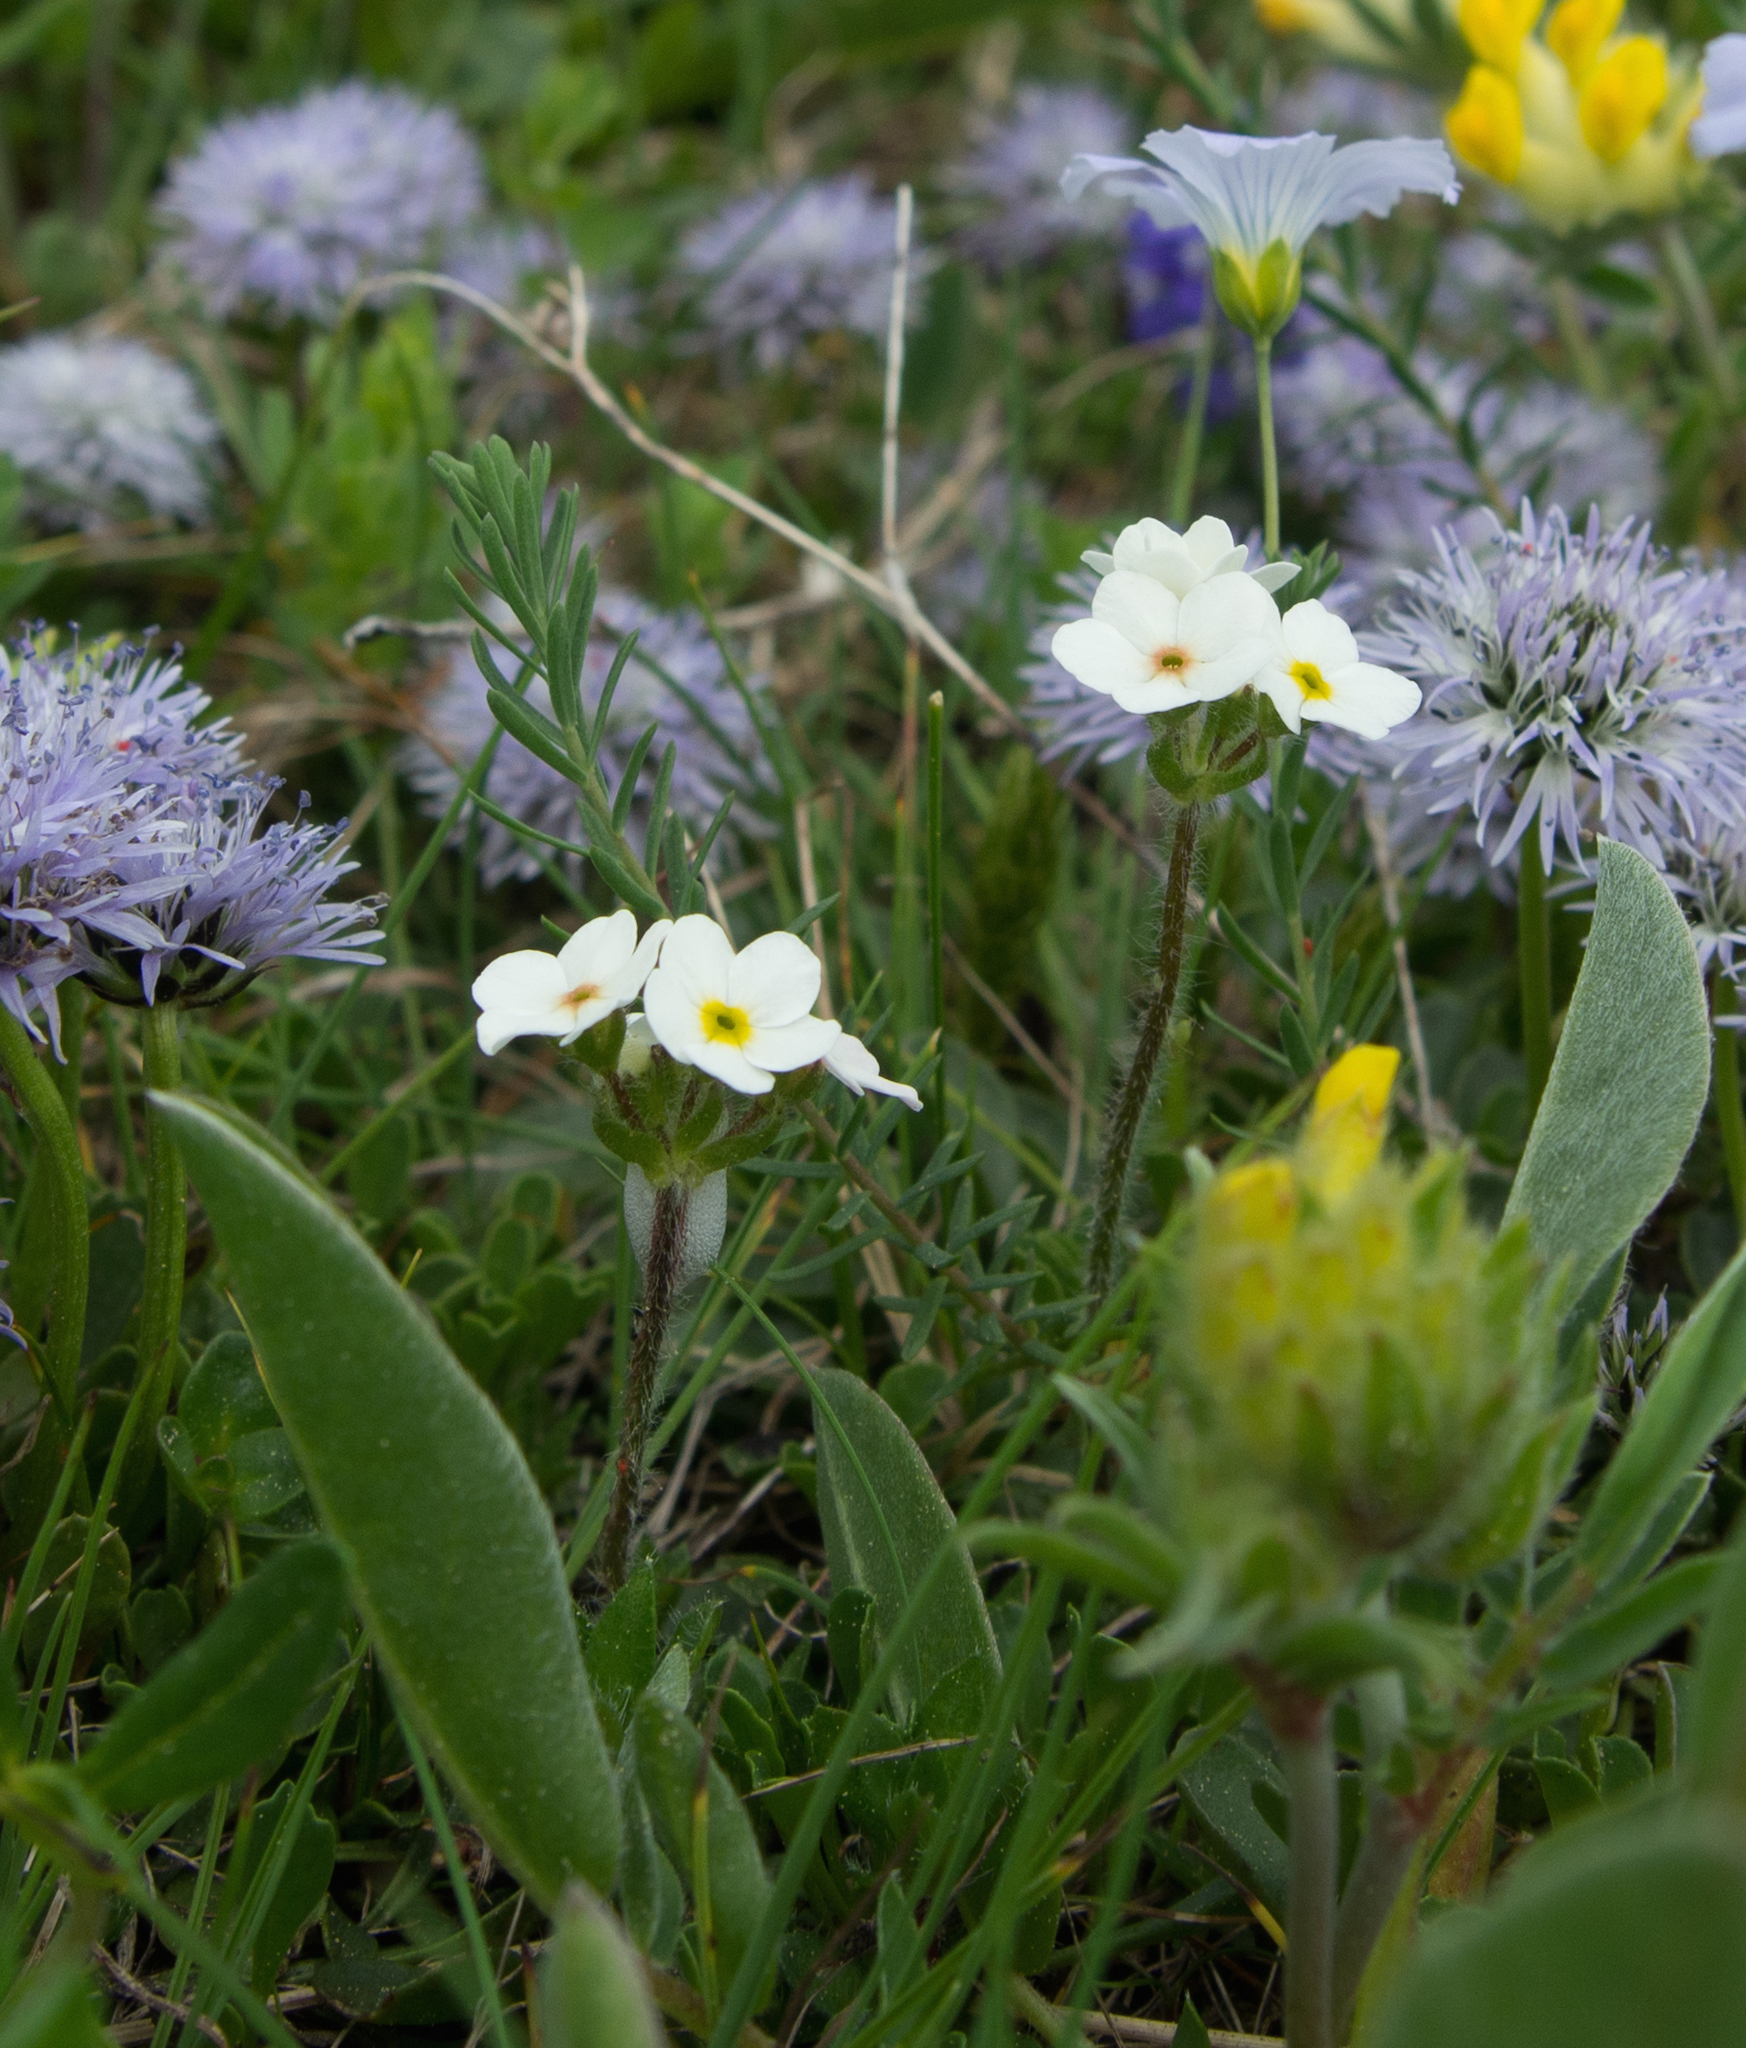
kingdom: Plantae
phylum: Tracheophyta
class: Magnoliopsida
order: Ericales
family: Primulaceae
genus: Androsace
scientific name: Androsace chamaejasme
